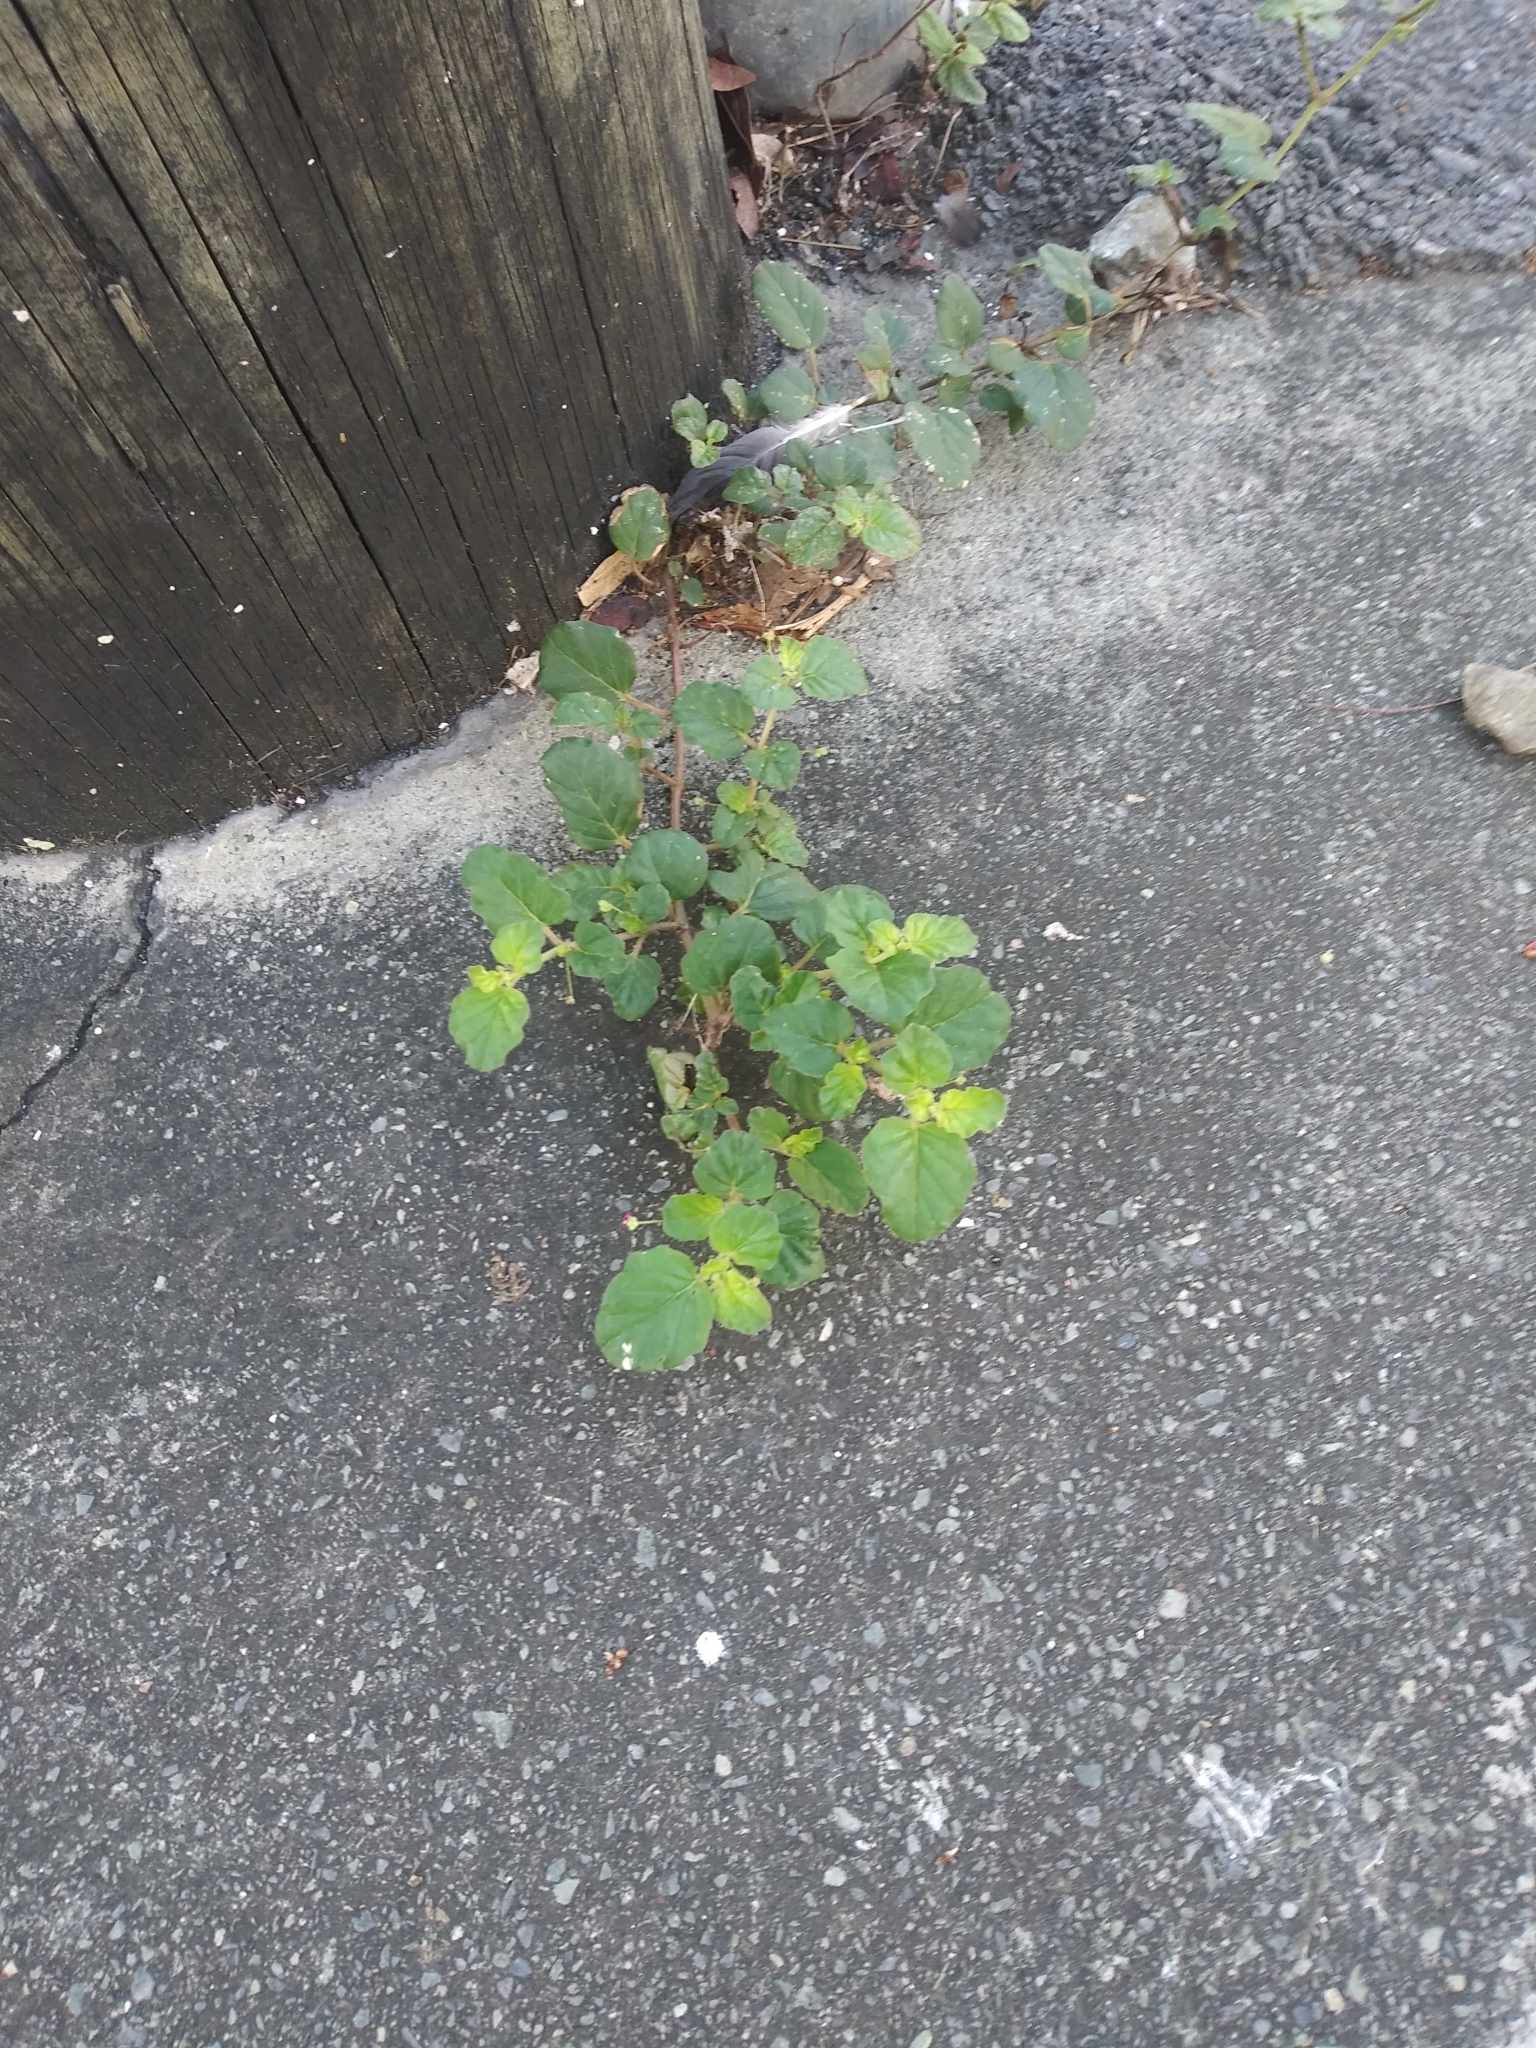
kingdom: Plantae
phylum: Tracheophyta
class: Magnoliopsida
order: Caryophyllales
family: Nyctaginaceae
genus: Boerhavia
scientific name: Boerhavia coccinea
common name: Scarlet spiderling
